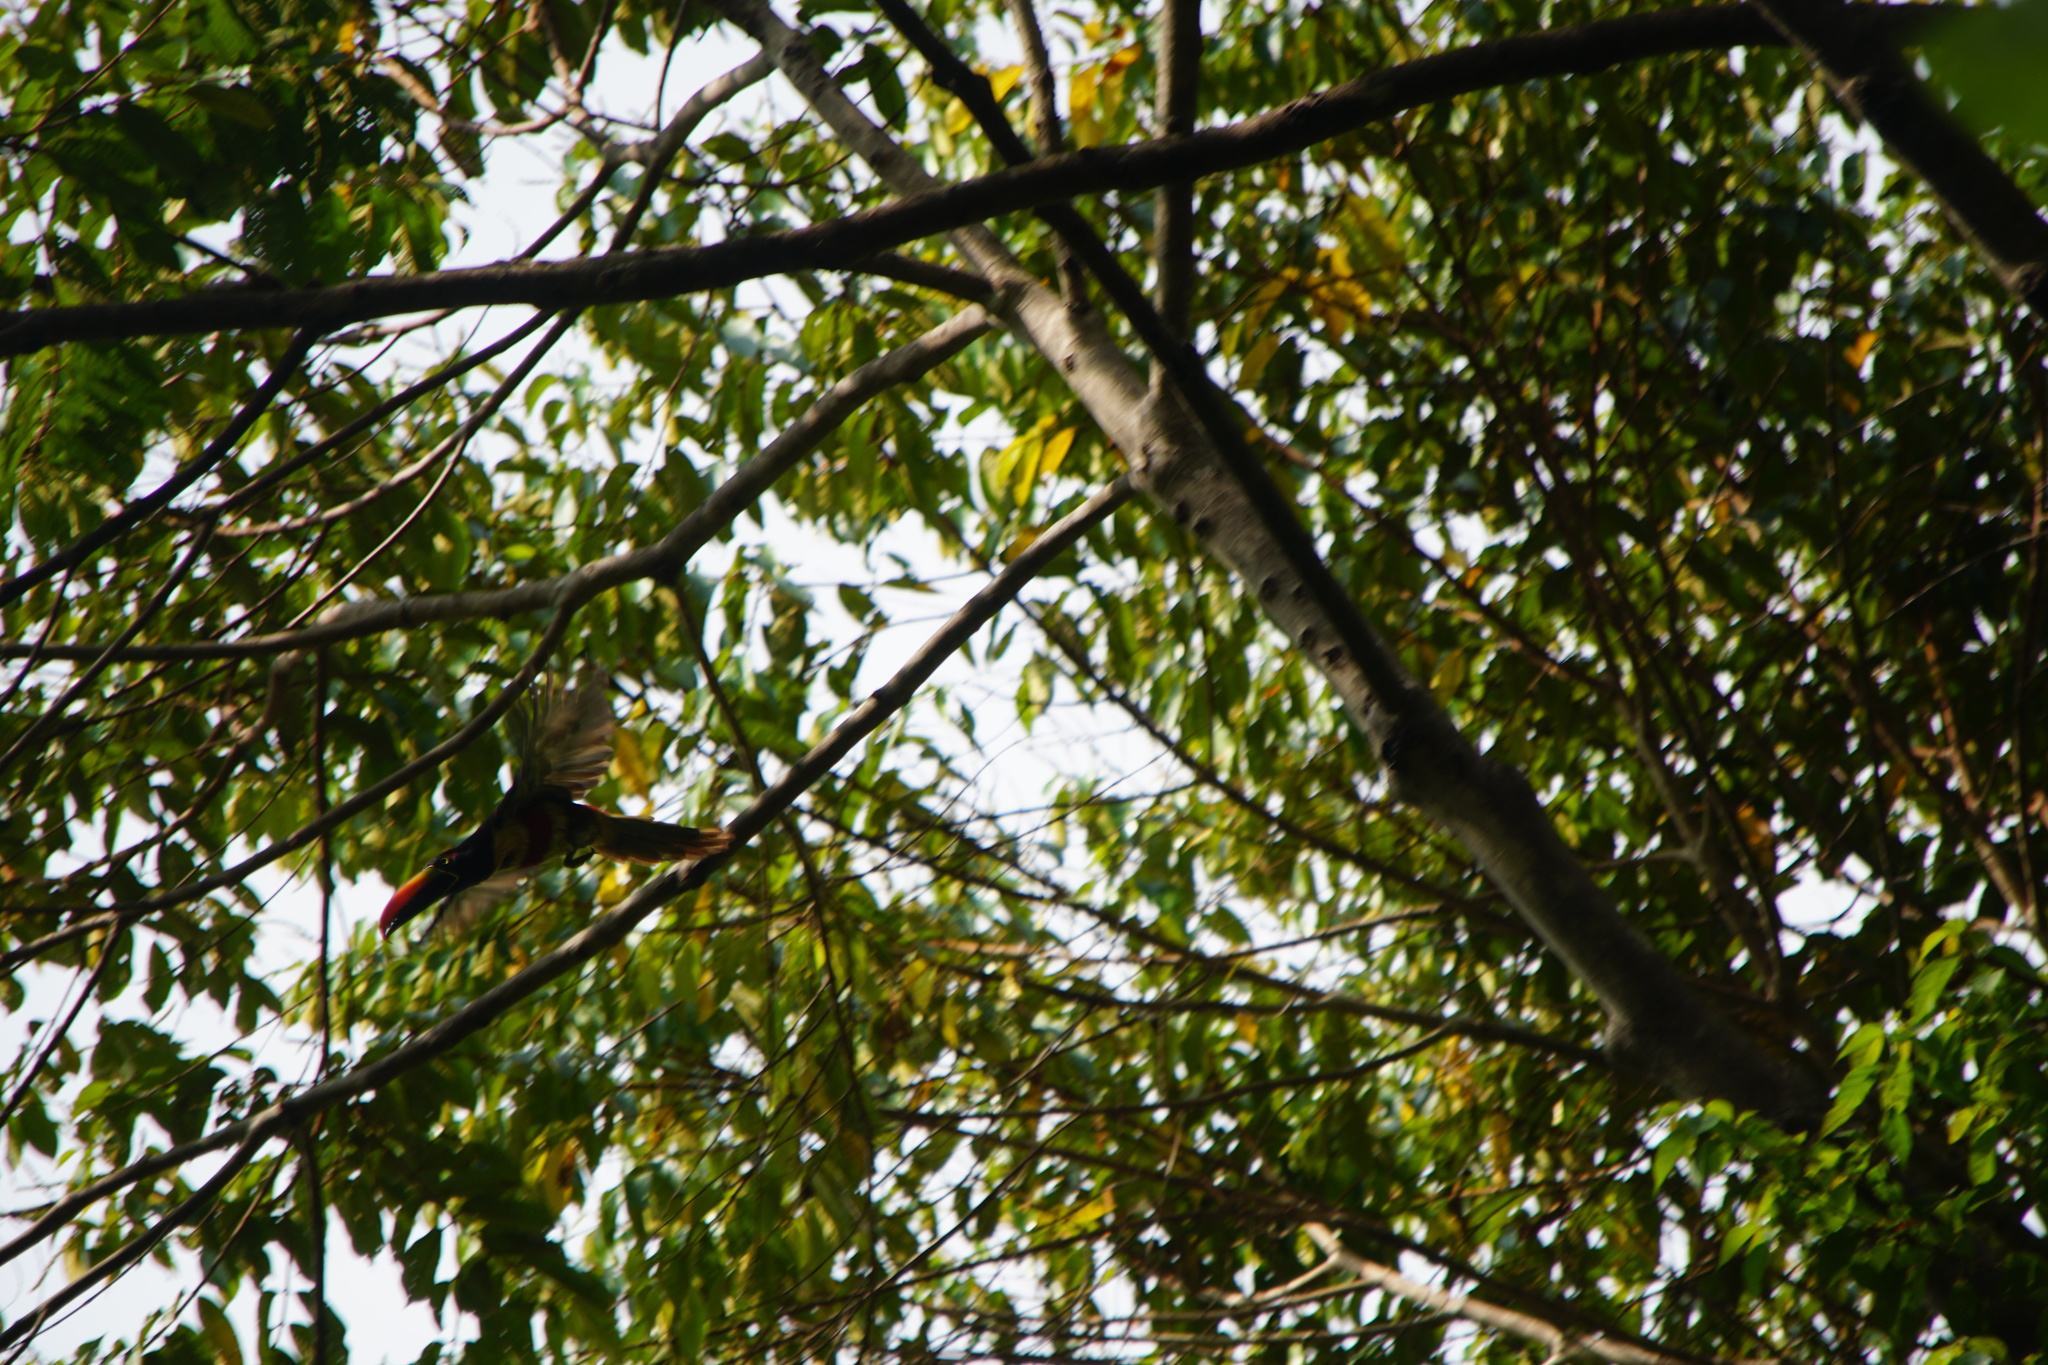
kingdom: Animalia
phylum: Chordata
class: Aves
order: Piciformes
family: Ramphastidae
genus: Pteroglossus
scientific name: Pteroglossus frantzii
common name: Fiery-billed aracari
